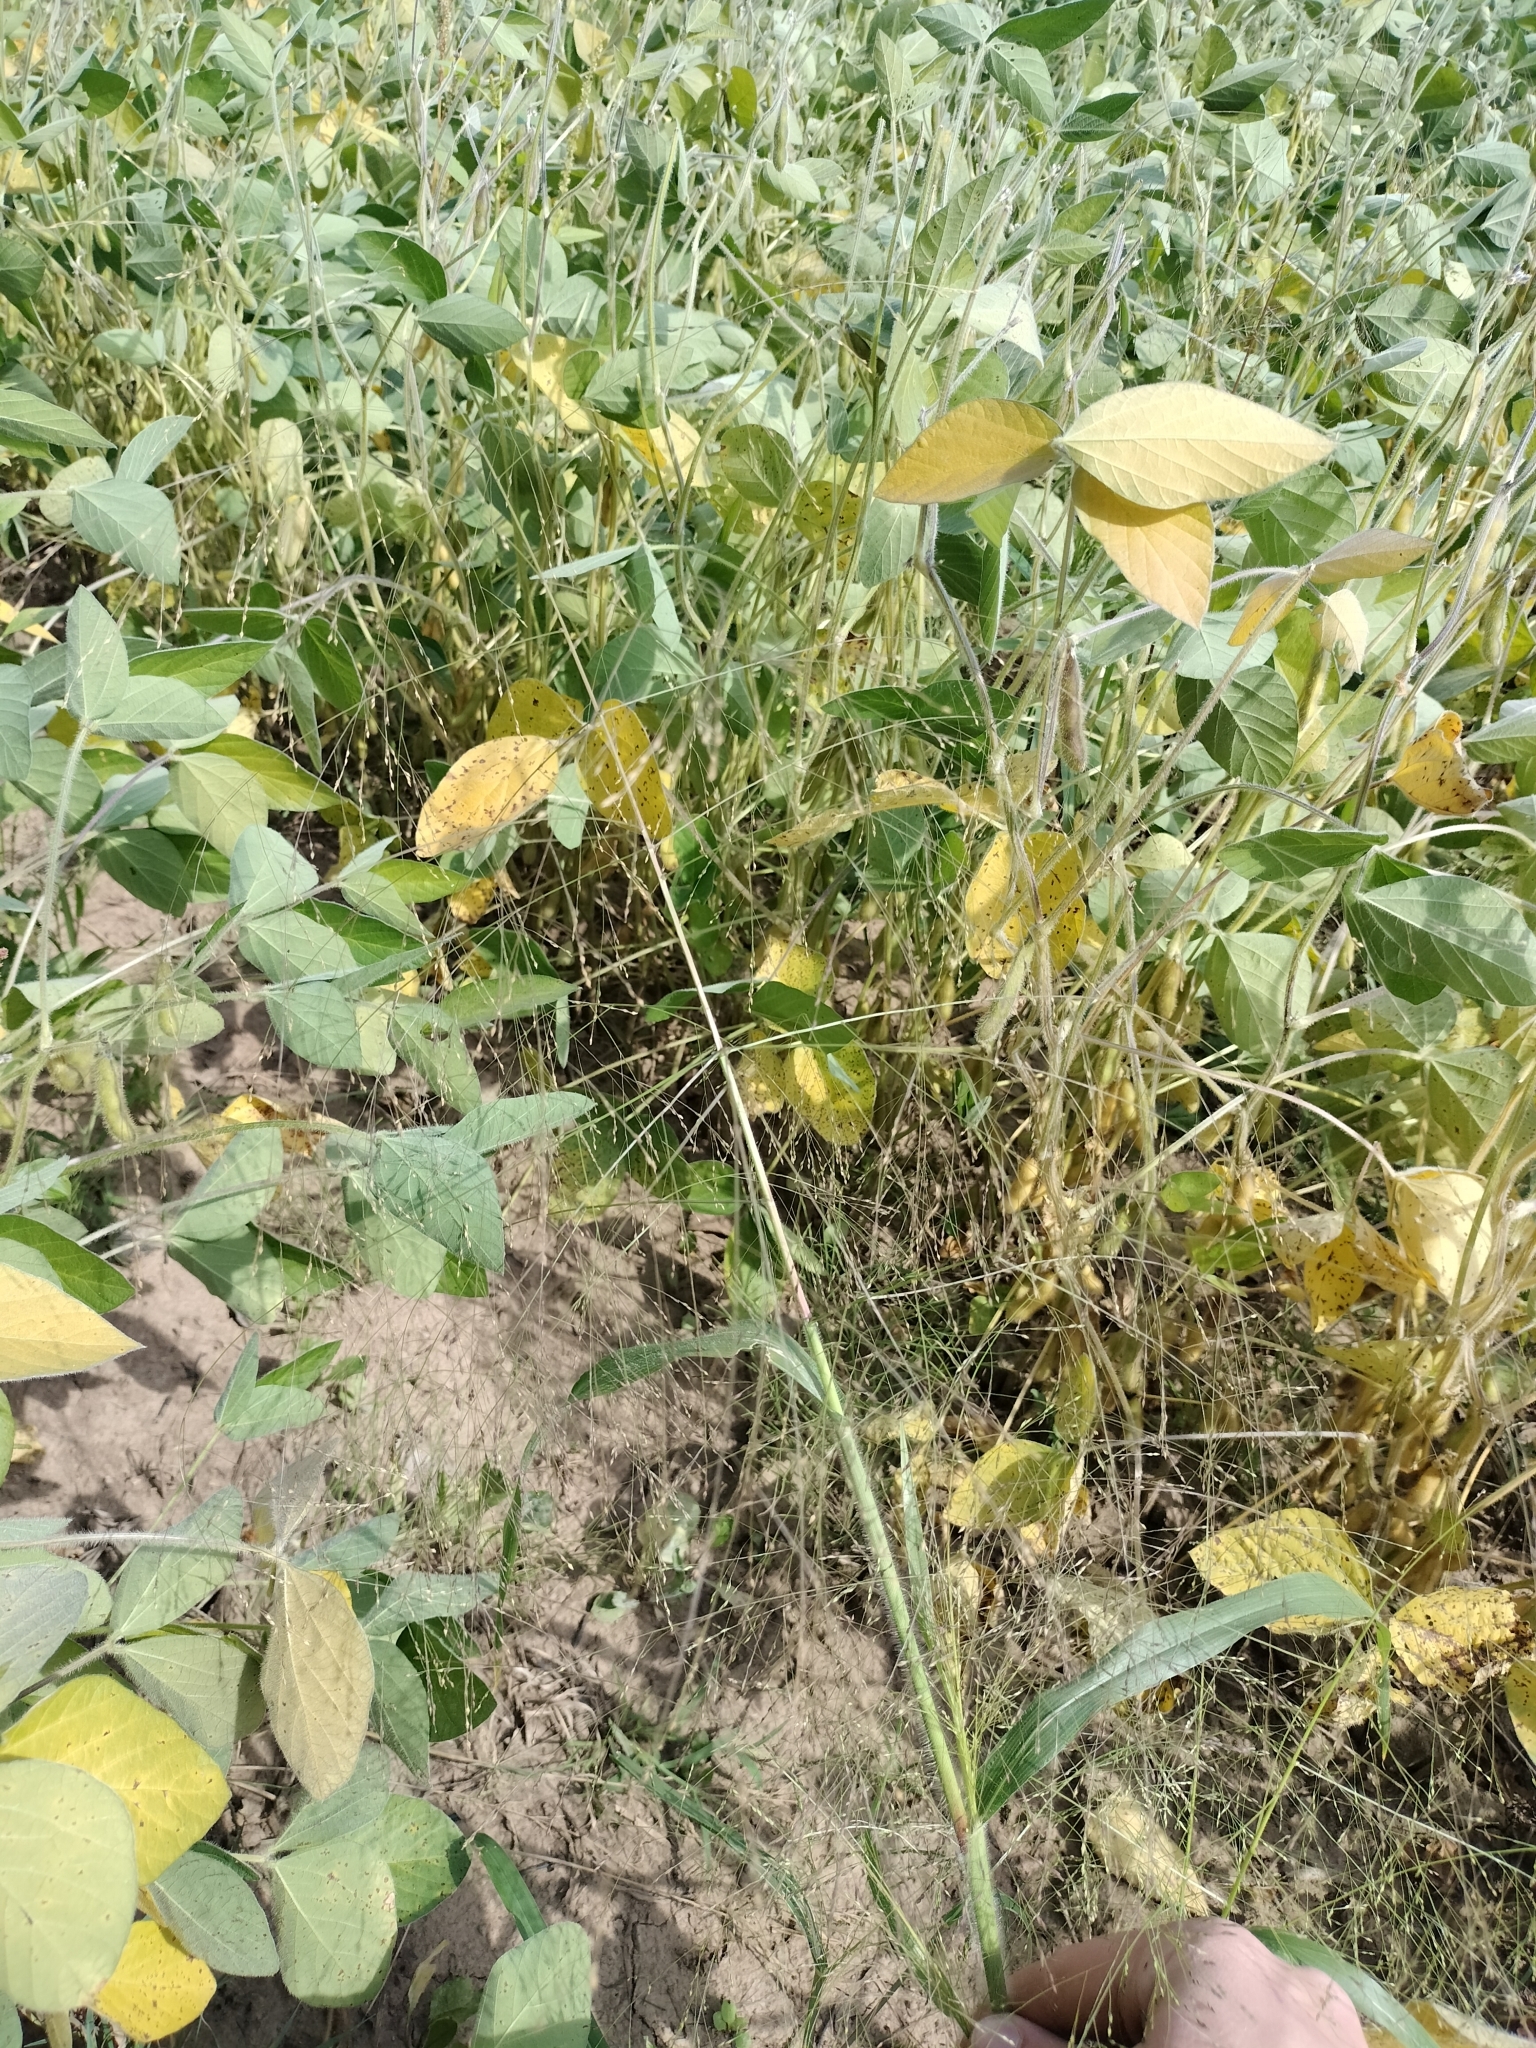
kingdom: Plantae
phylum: Tracheophyta
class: Liliopsida
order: Poales
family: Poaceae
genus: Panicum
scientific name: Panicum capillare
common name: Witch-grass
